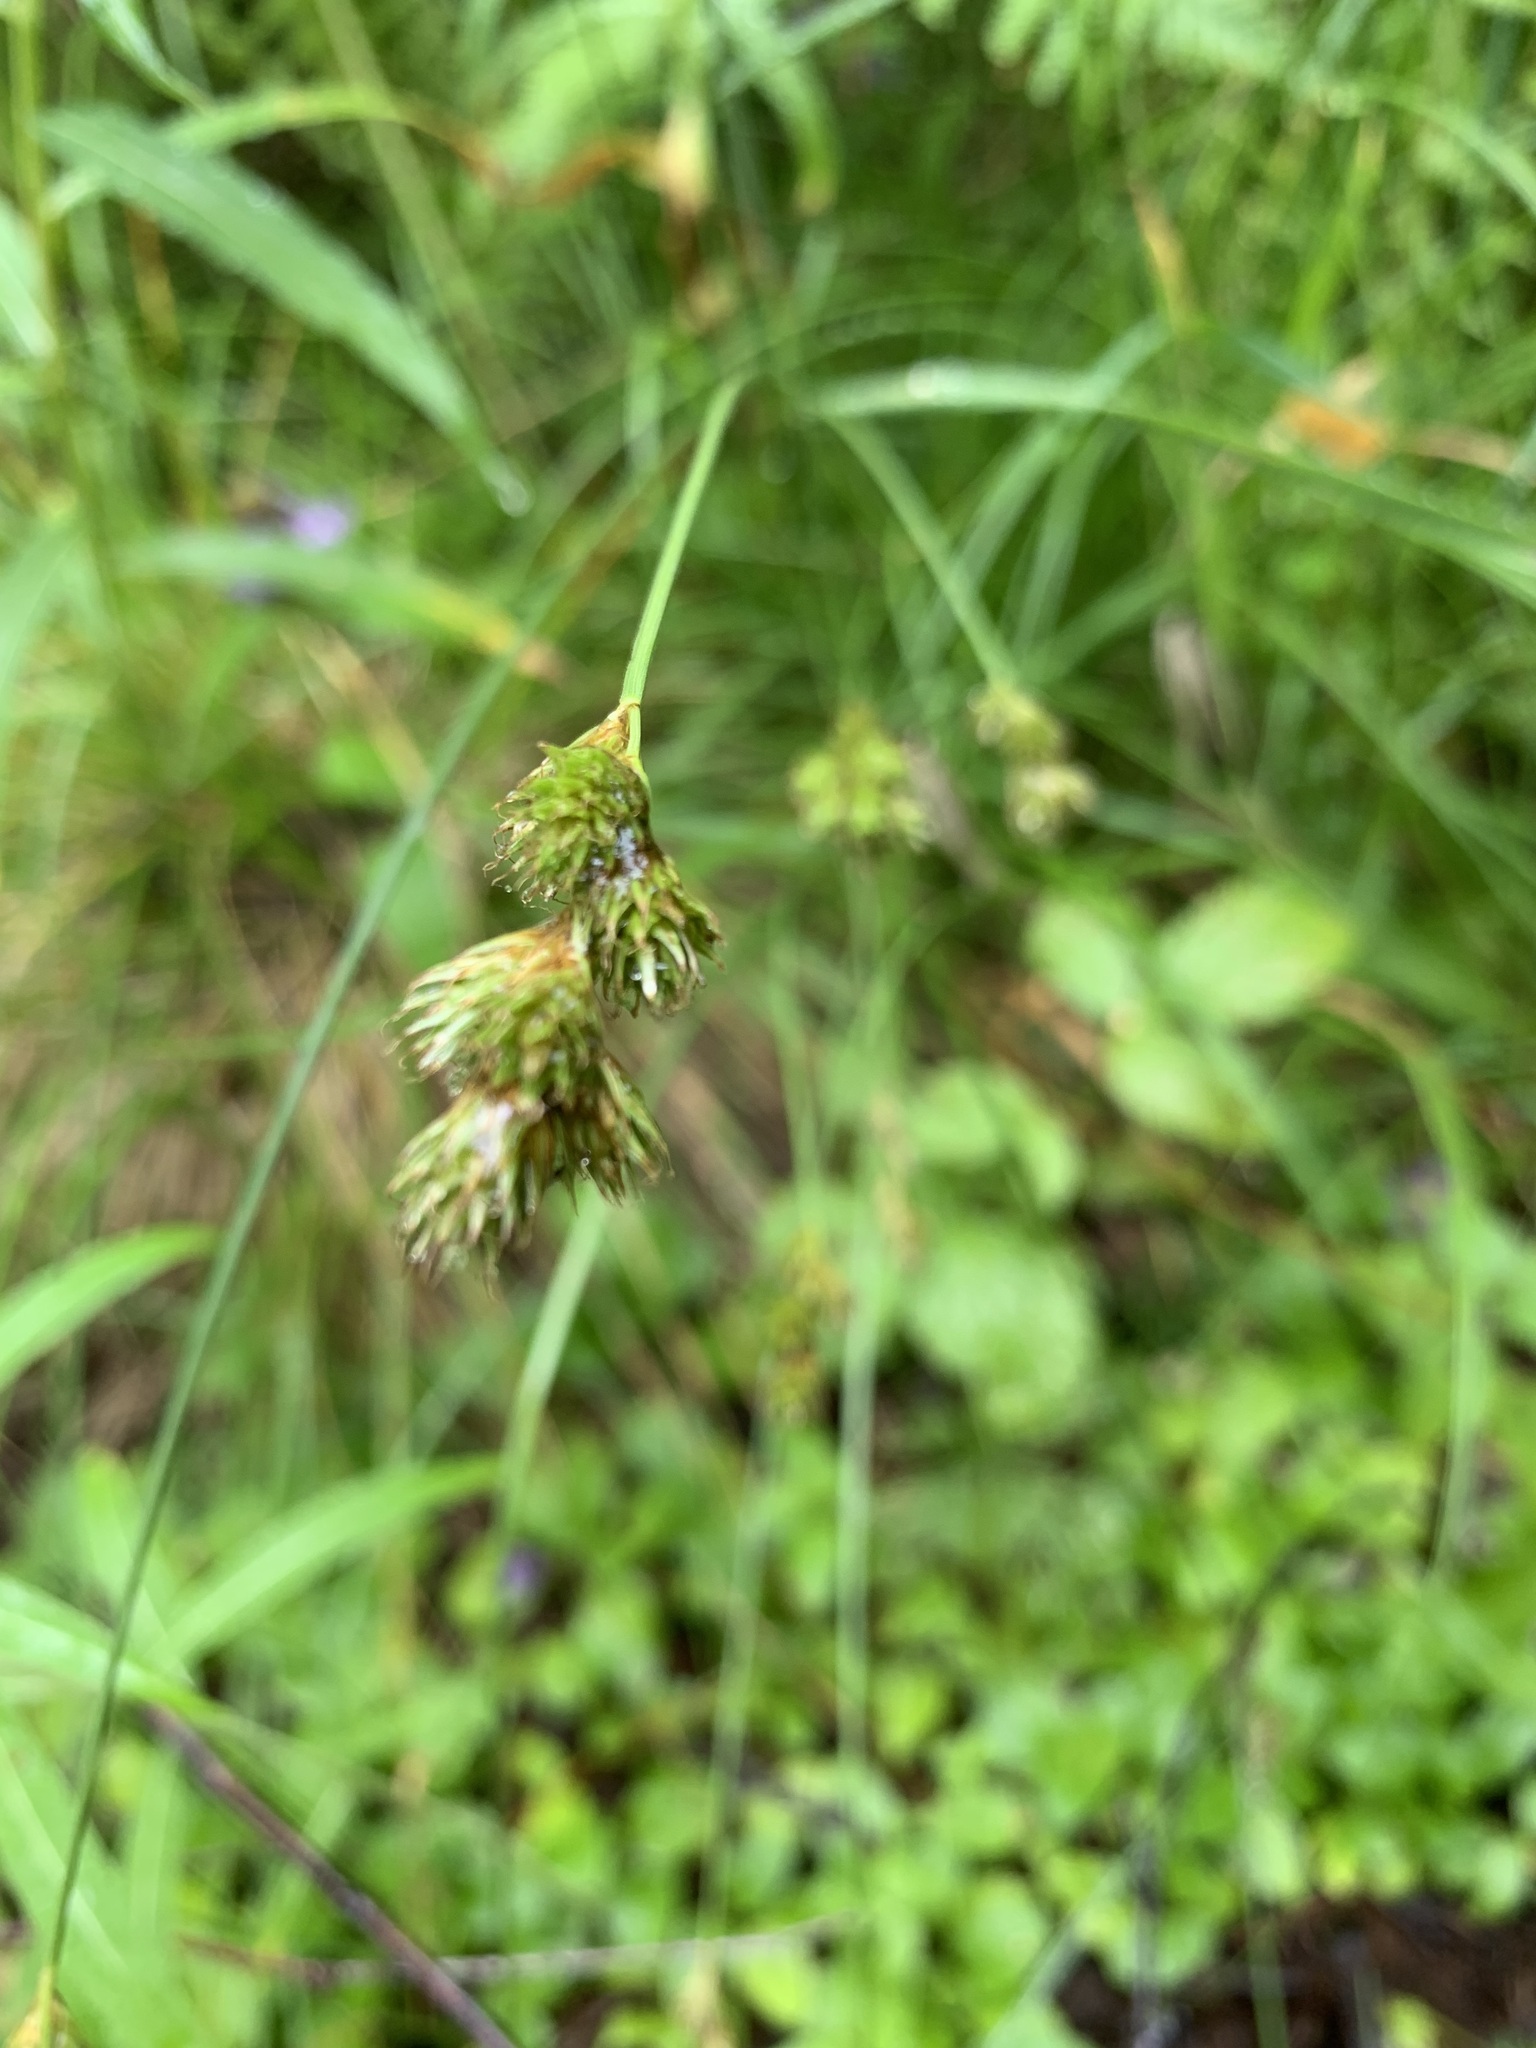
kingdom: Plantae
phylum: Tracheophyta
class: Liliopsida
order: Poales
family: Cyperaceae
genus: Carex
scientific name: Carex leporina
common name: Oval sedge
